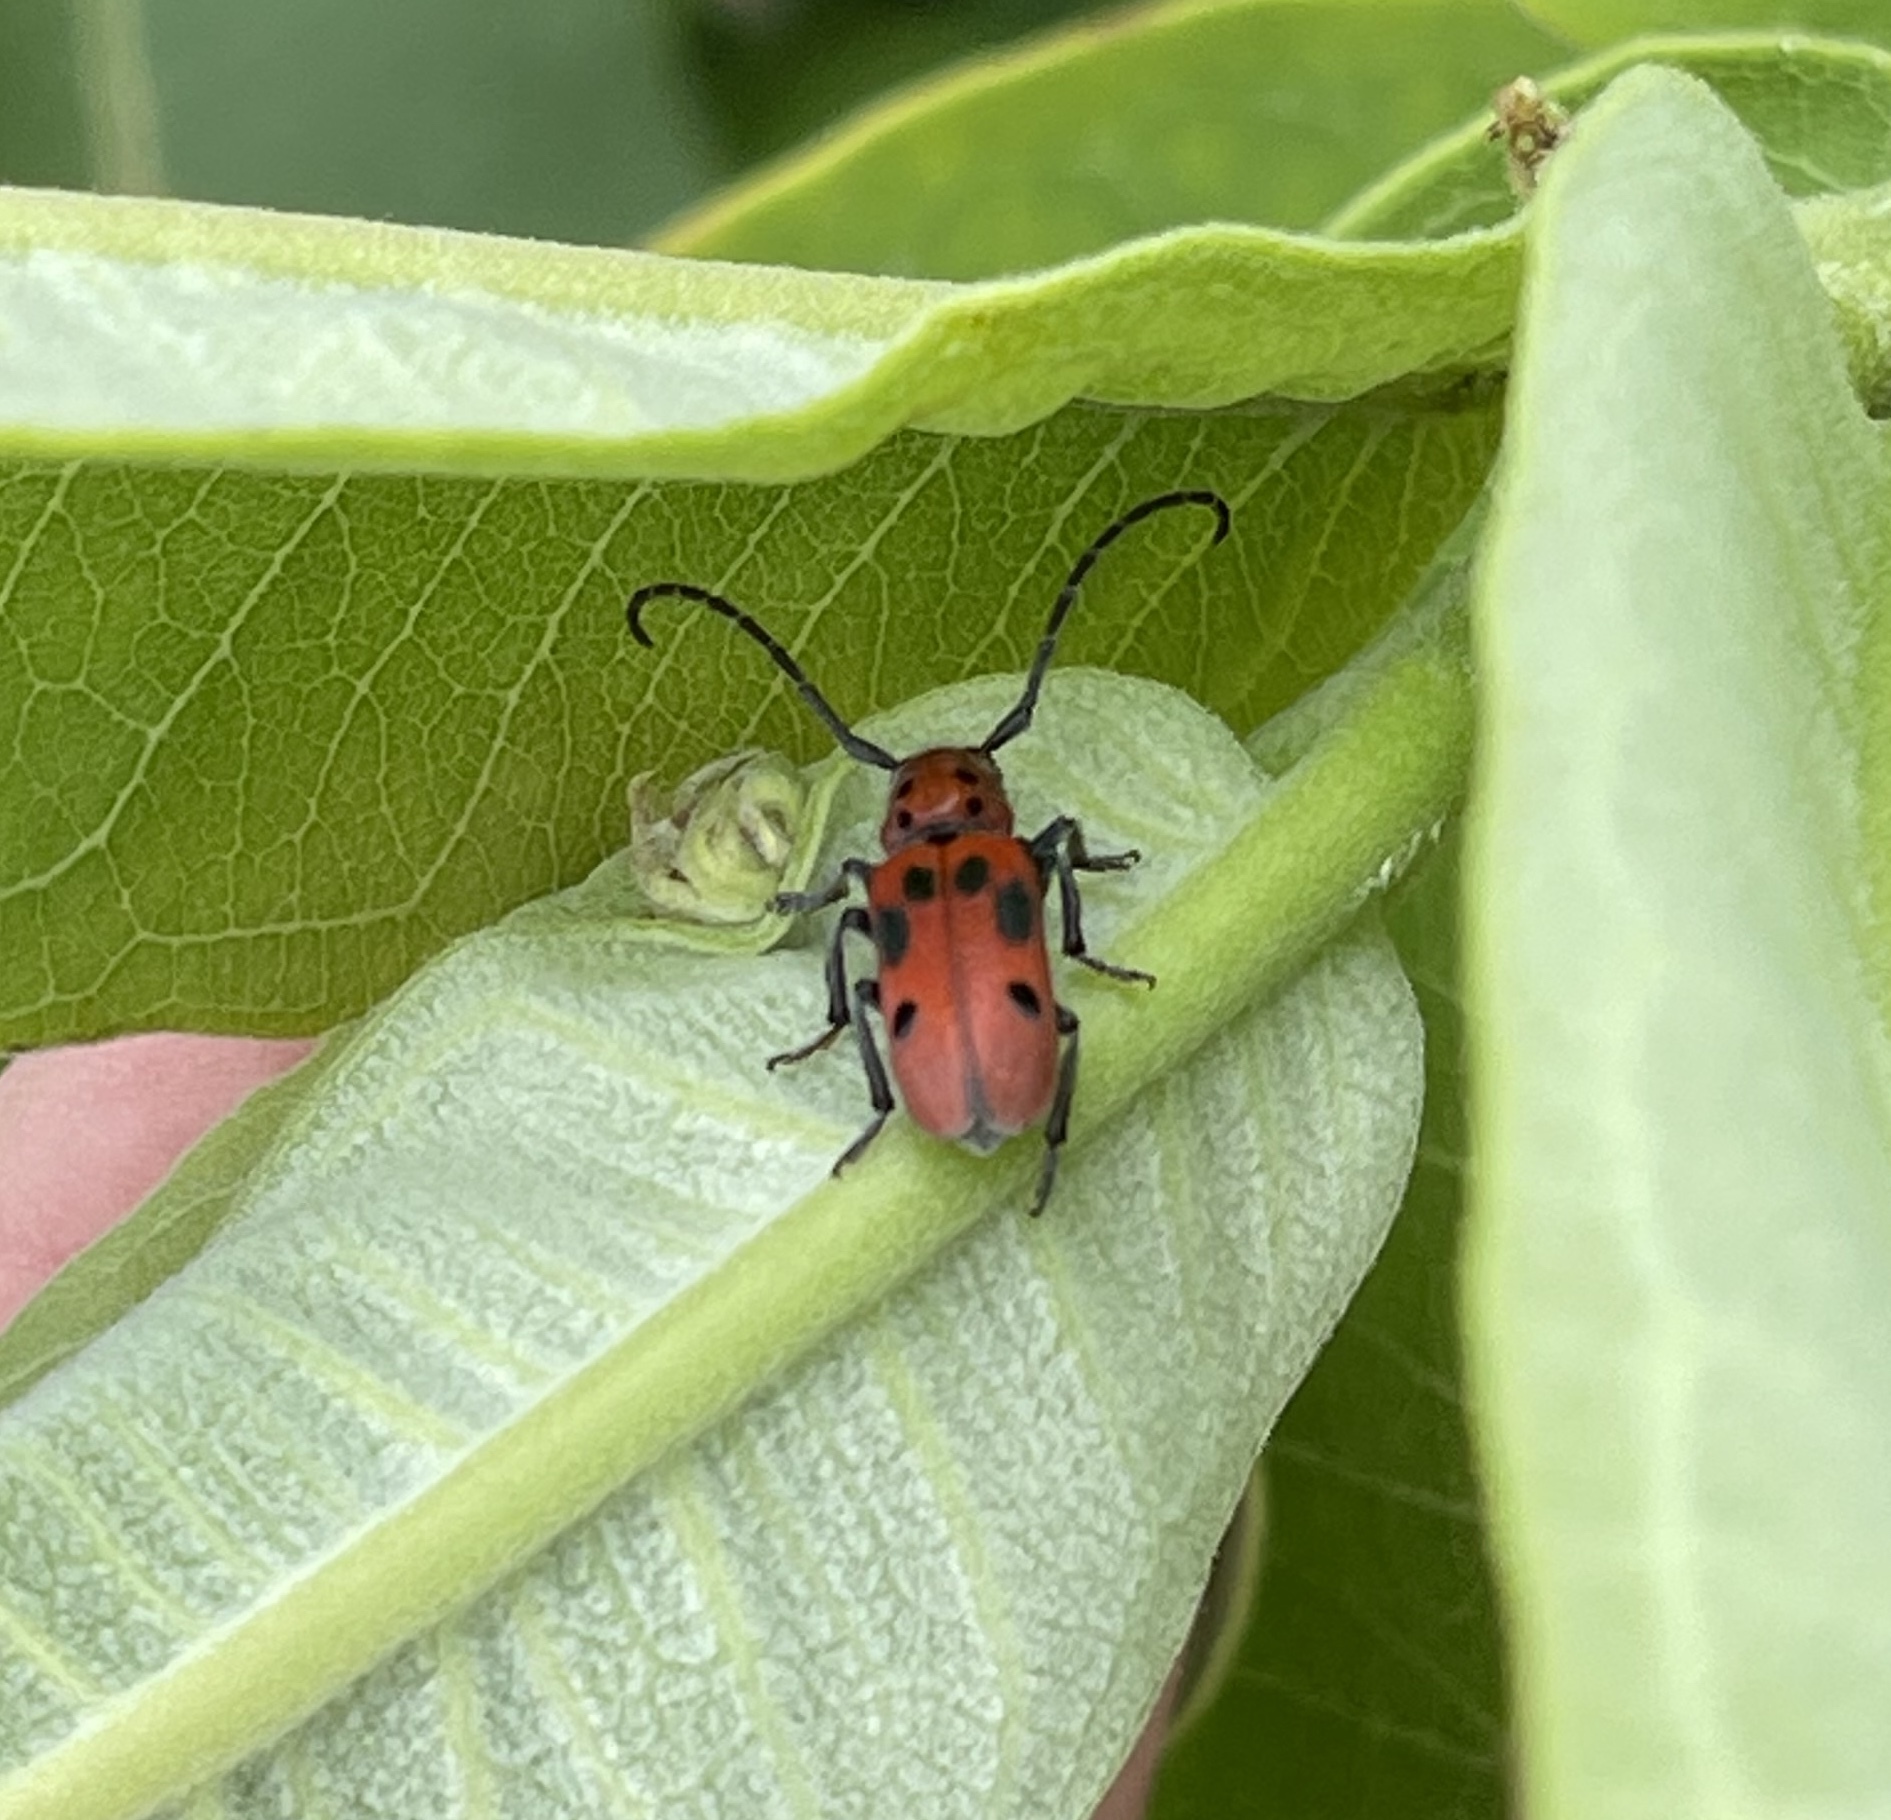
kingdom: Animalia
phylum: Arthropoda
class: Insecta
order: Coleoptera
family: Cerambycidae
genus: Tetraopes
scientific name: Tetraopes tetrophthalmus
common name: Red milkweed beetle
